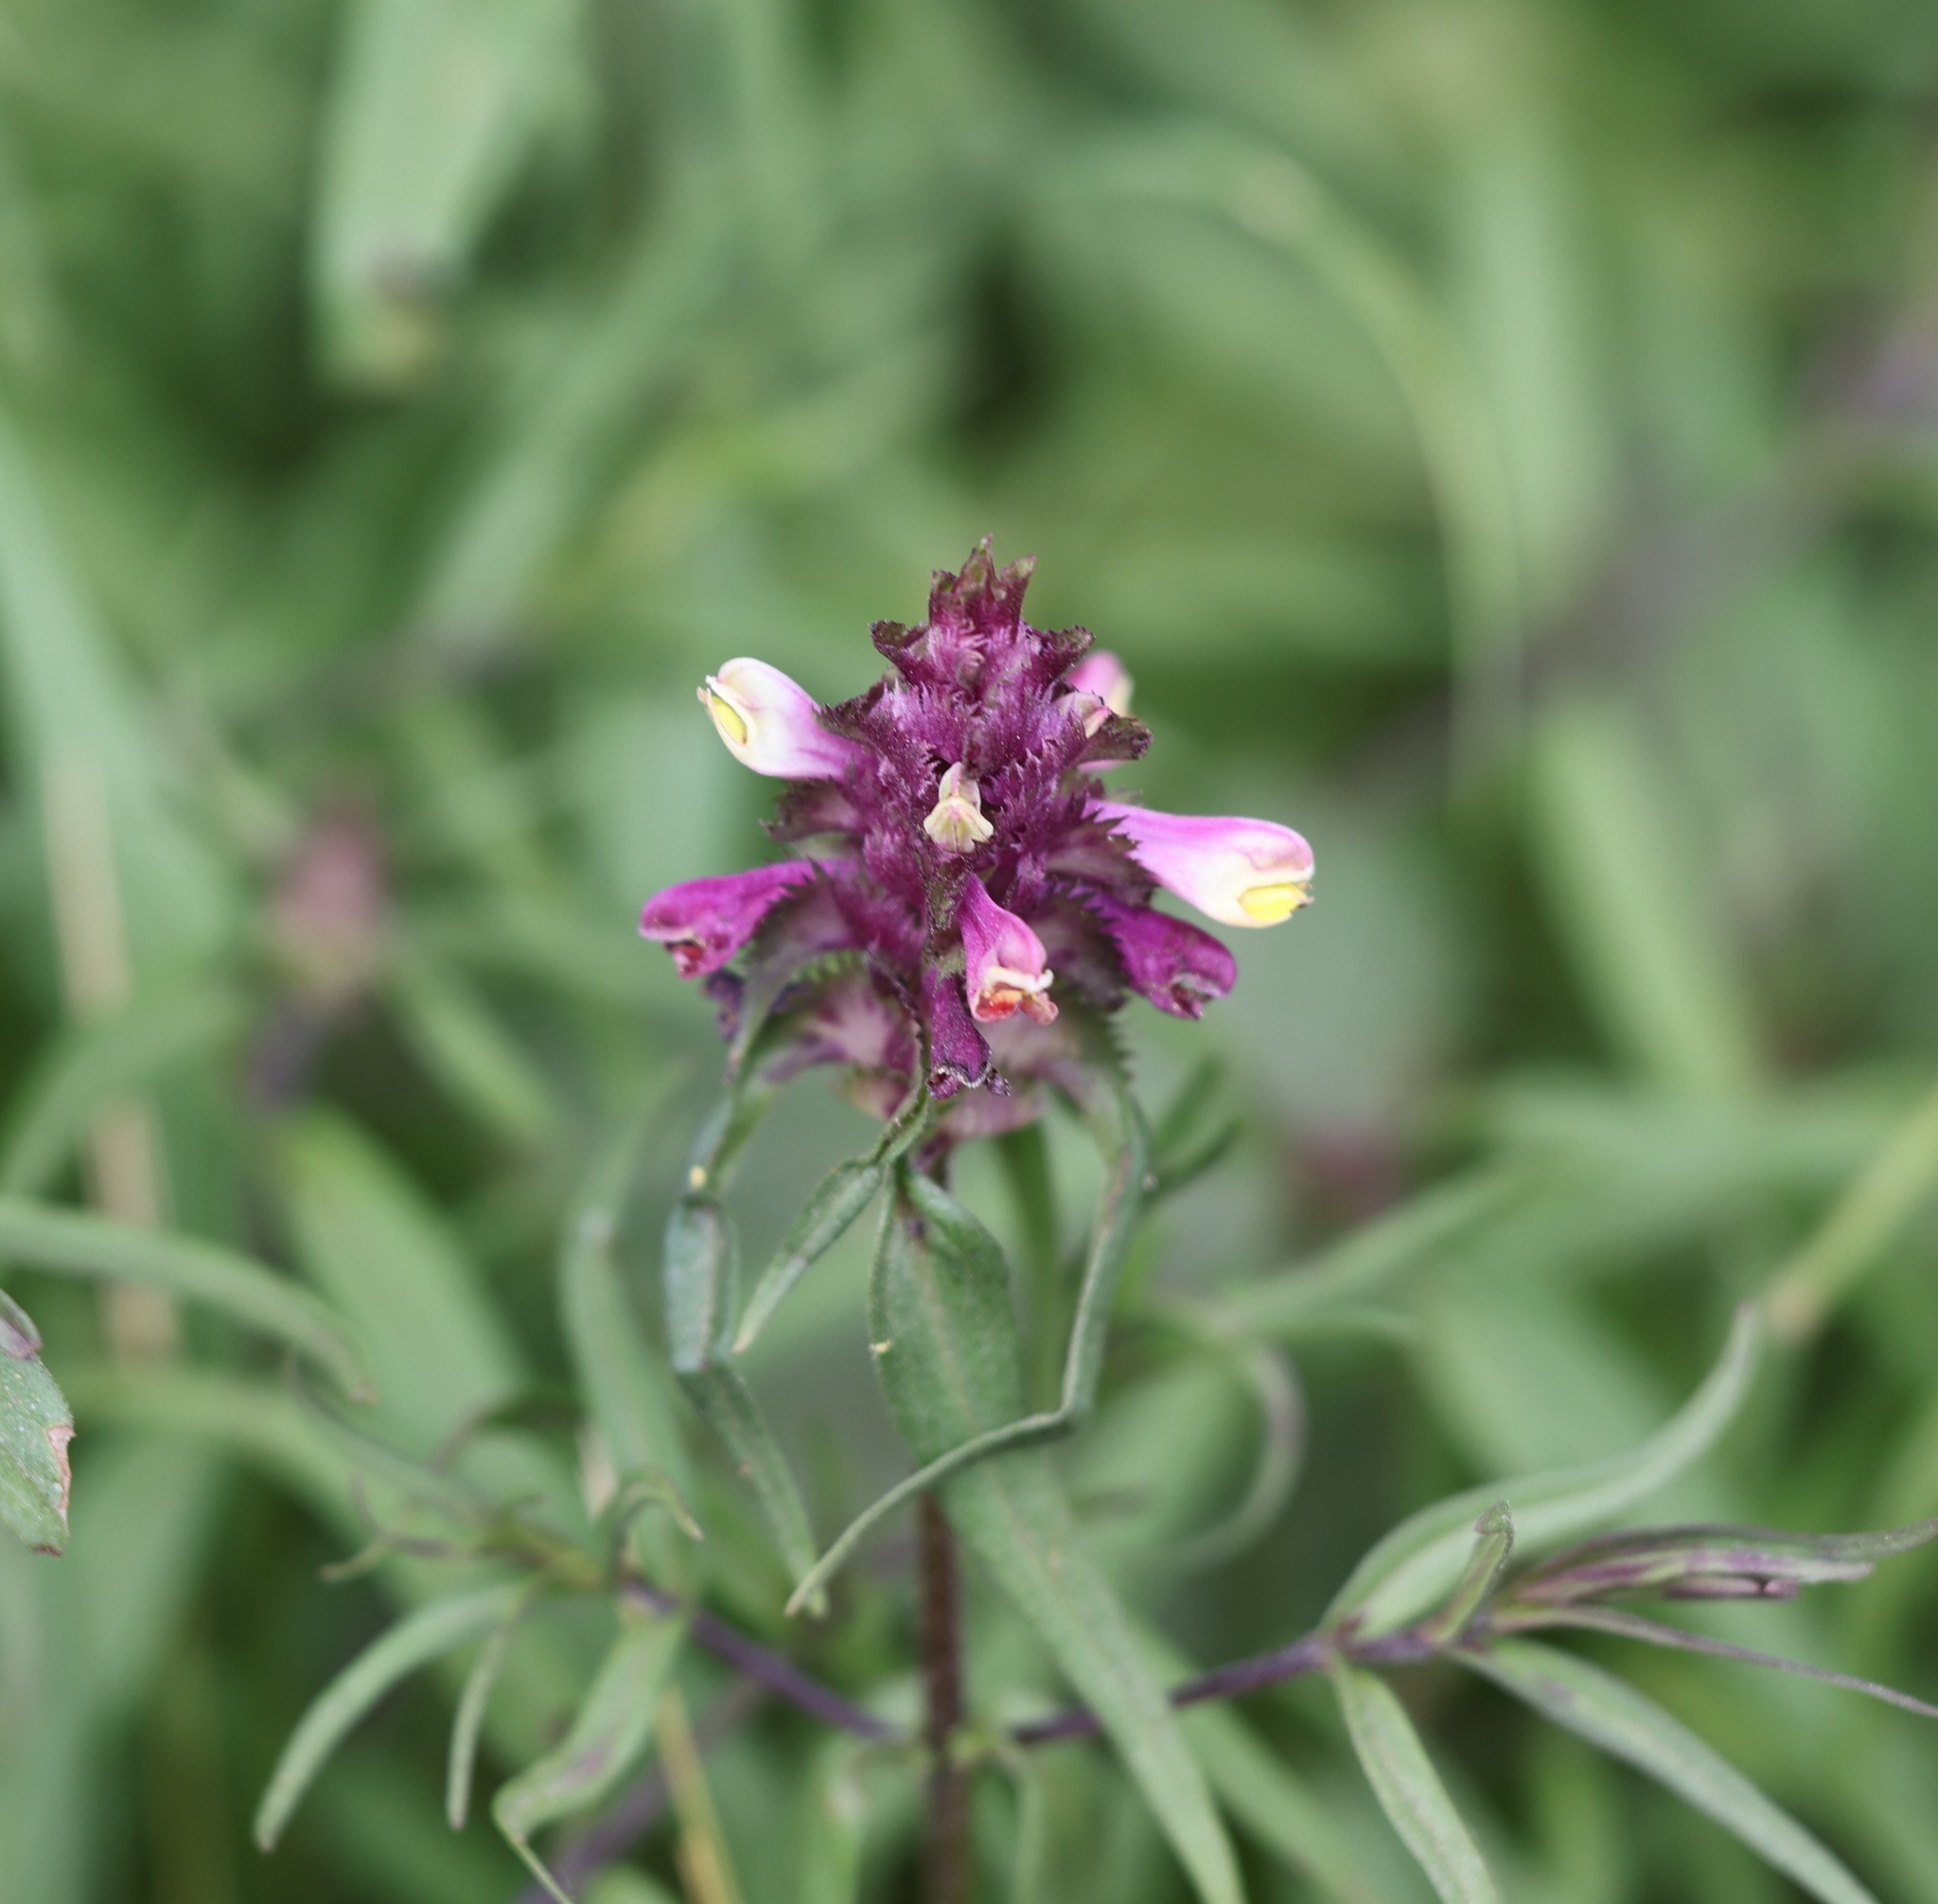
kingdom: Plantae
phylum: Tracheophyta
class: Magnoliopsida
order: Lamiales
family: Orobanchaceae
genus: Melampyrum
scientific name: Melampyrum cristatum
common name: Crested cow-wheat
